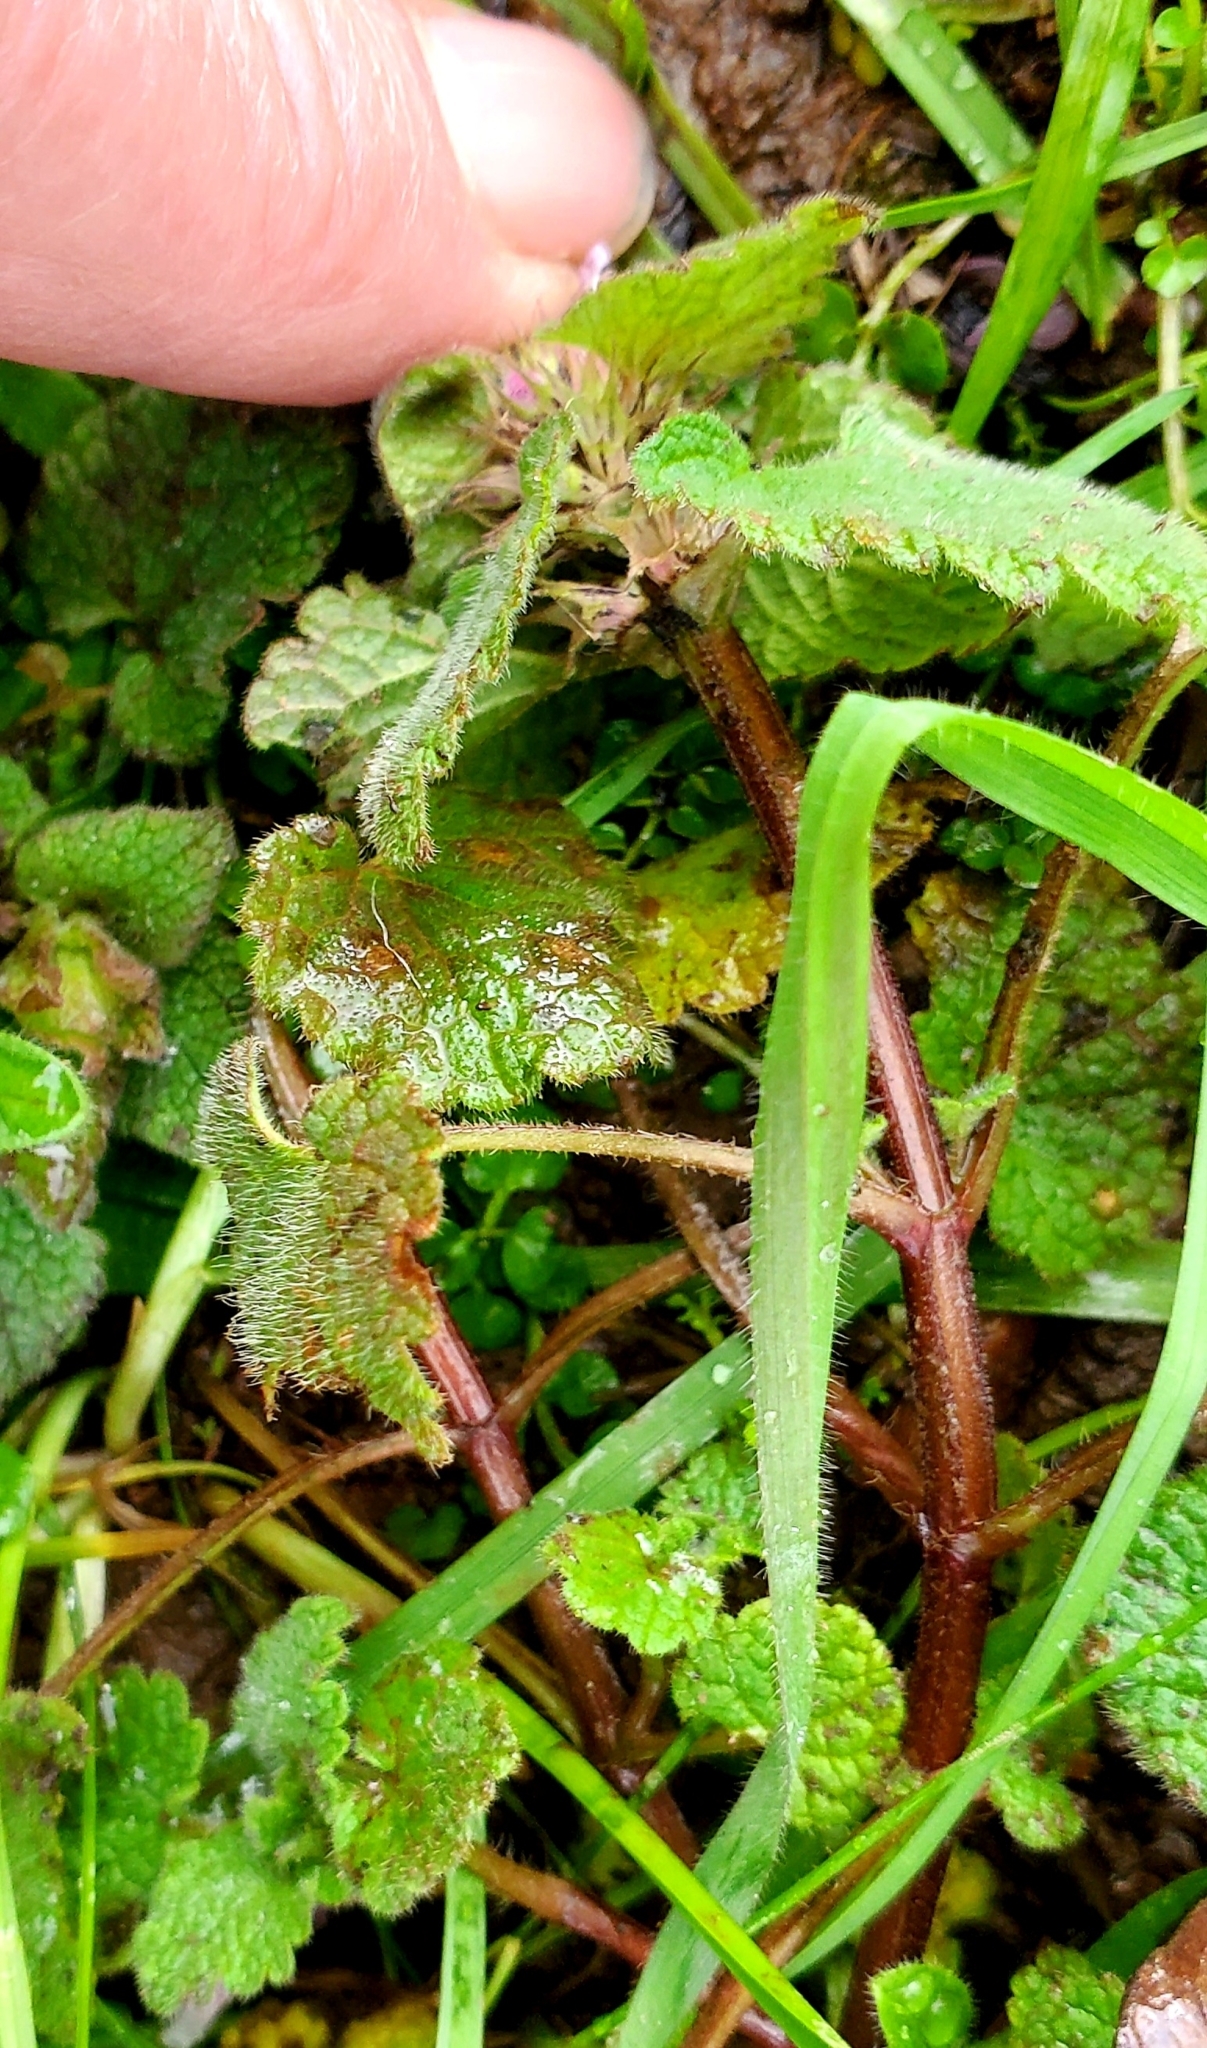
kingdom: Plantae
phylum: Tracheophyta
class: Magnoliopsida
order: Lamiales
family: Lamiaceae
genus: Lamium
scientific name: Lamium purpureum
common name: Red dead-nettle
